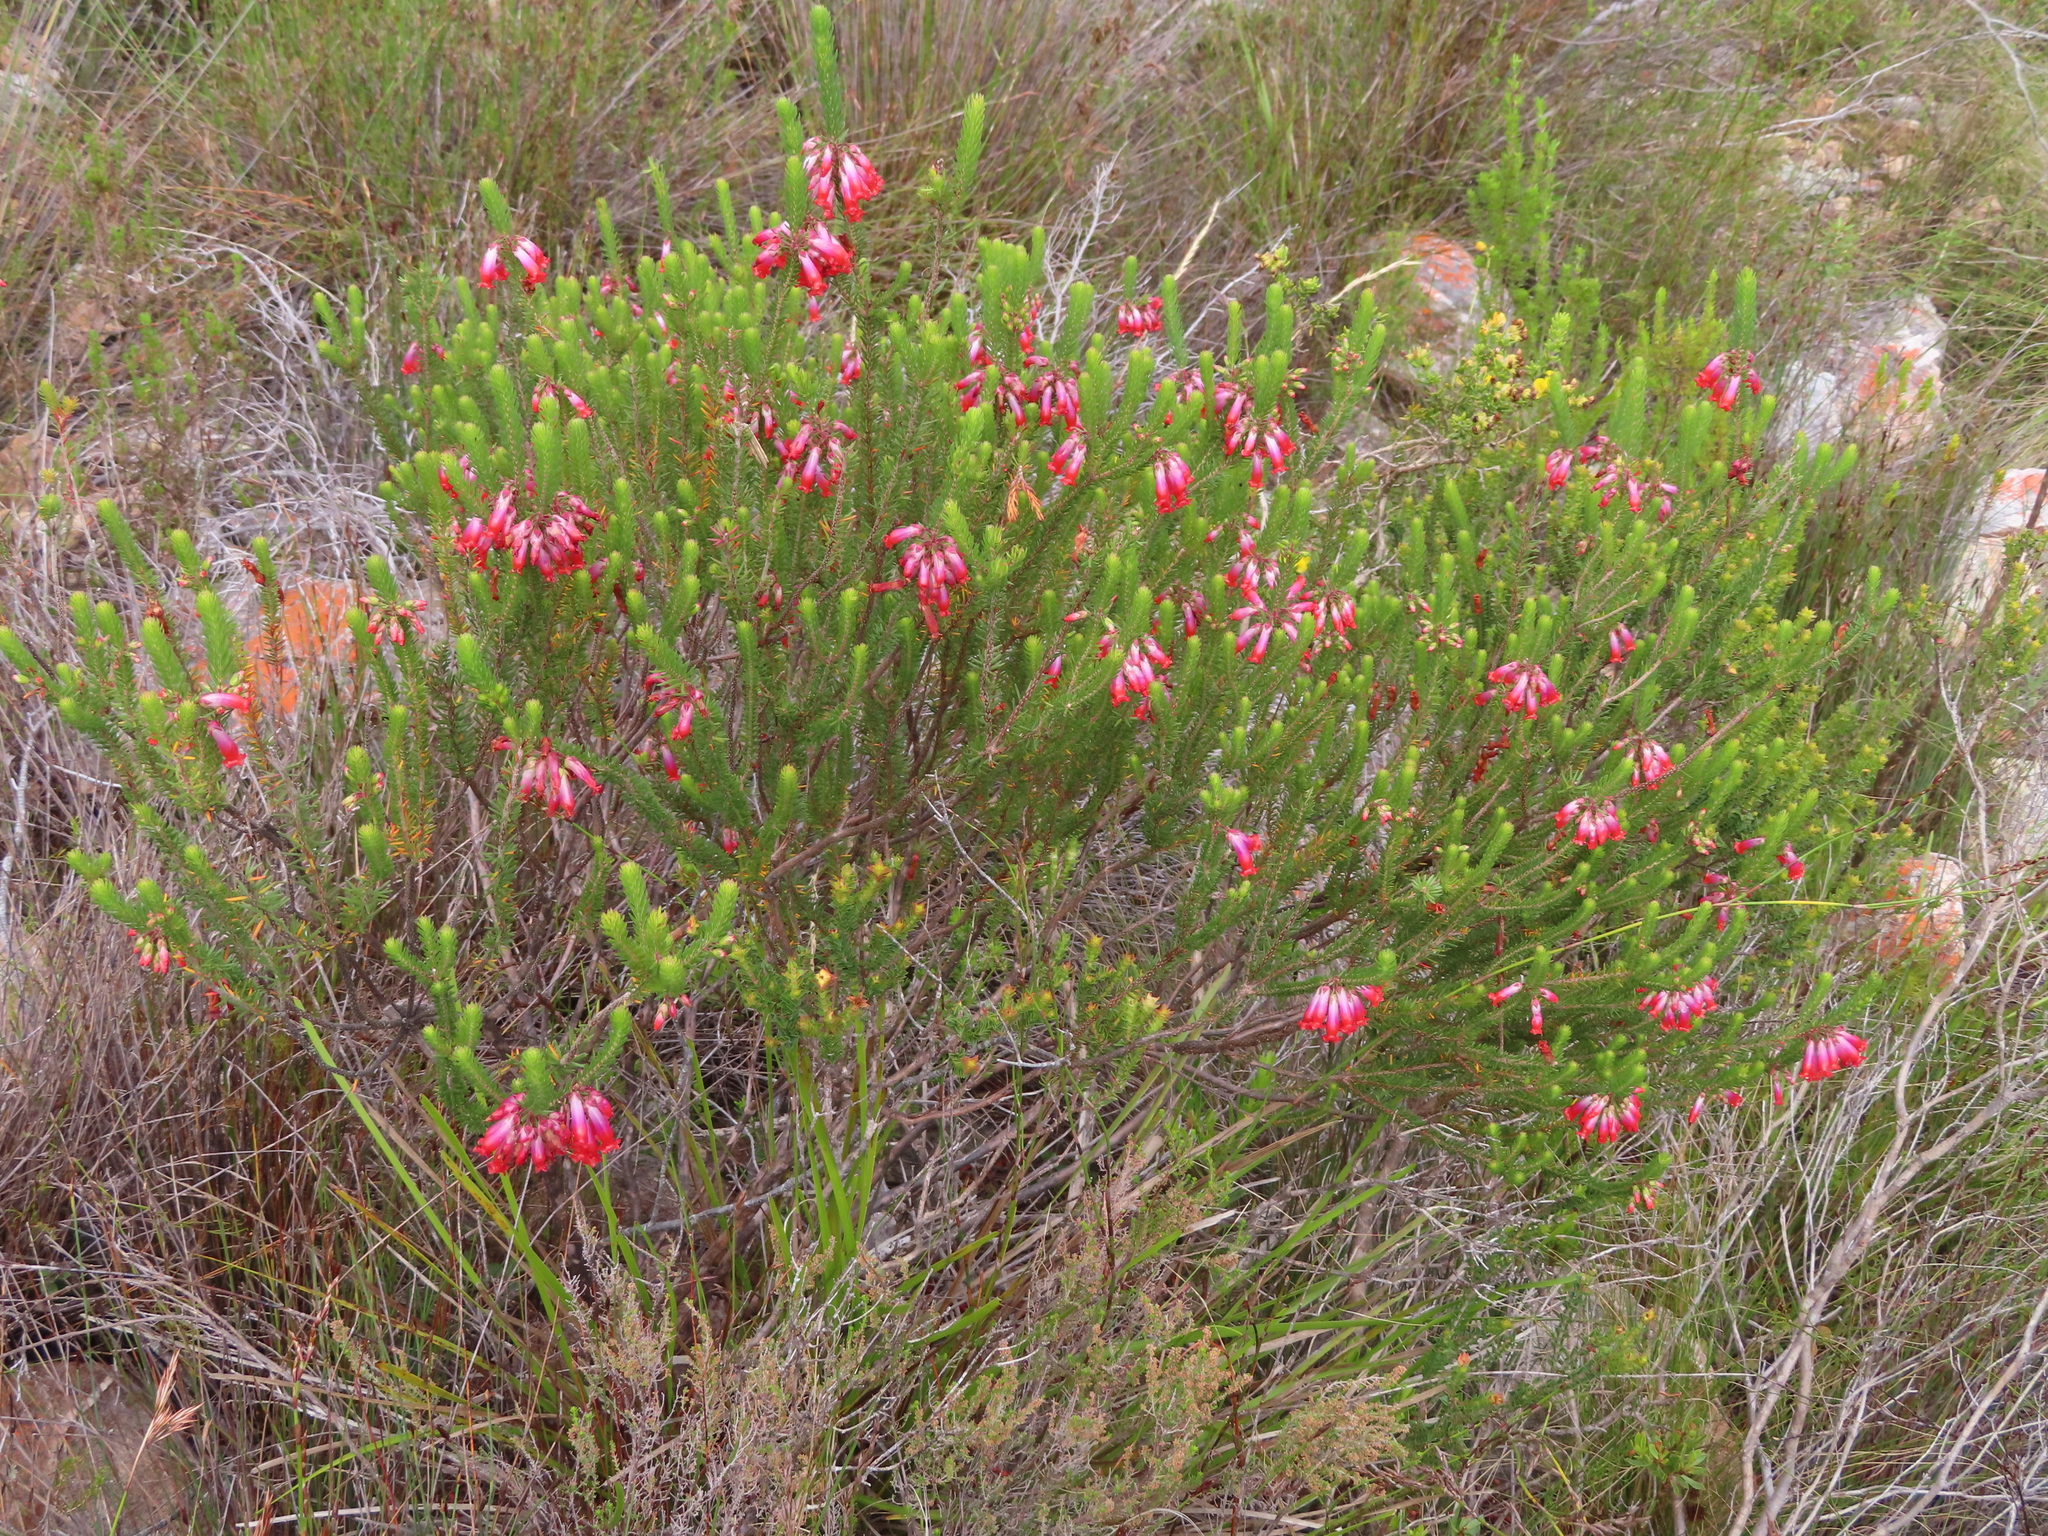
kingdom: Plantae
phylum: Tracheophyta
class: Magnoliopsida
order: Ericales
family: Ericaceae
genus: Erica
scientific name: Erica regia
